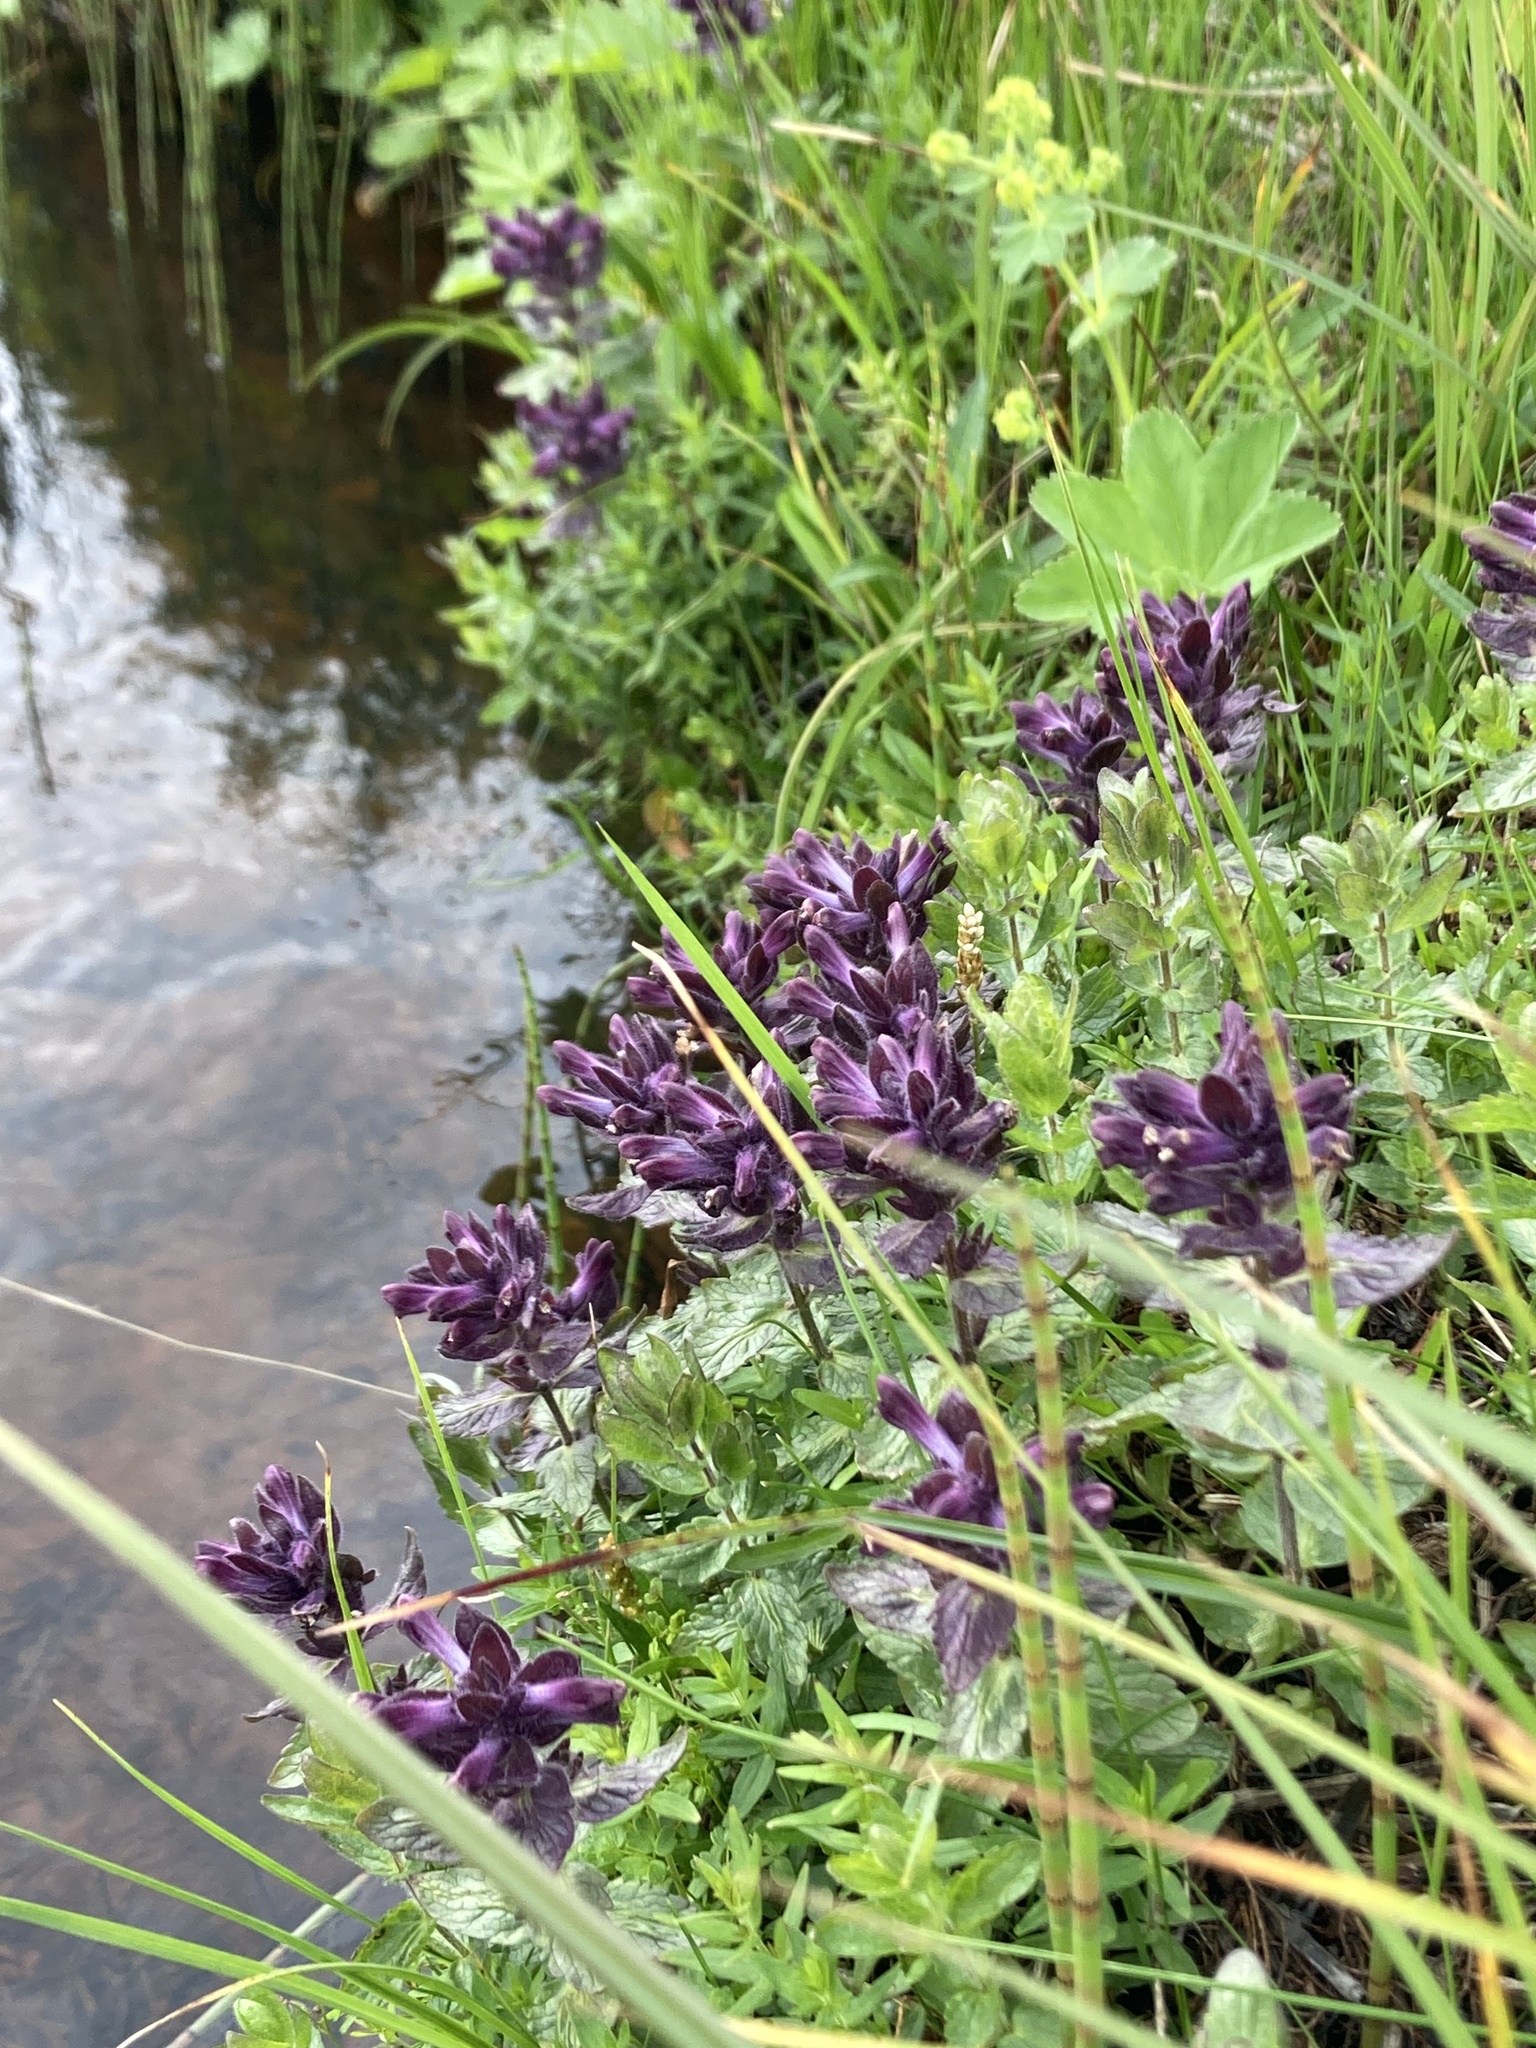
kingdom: Plantae
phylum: Tracheophyta
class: Magnoliopsida
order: Lamiales
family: Orobanchaceae
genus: Bartsia
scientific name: Bartsia alpina
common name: Alpine bartsia
